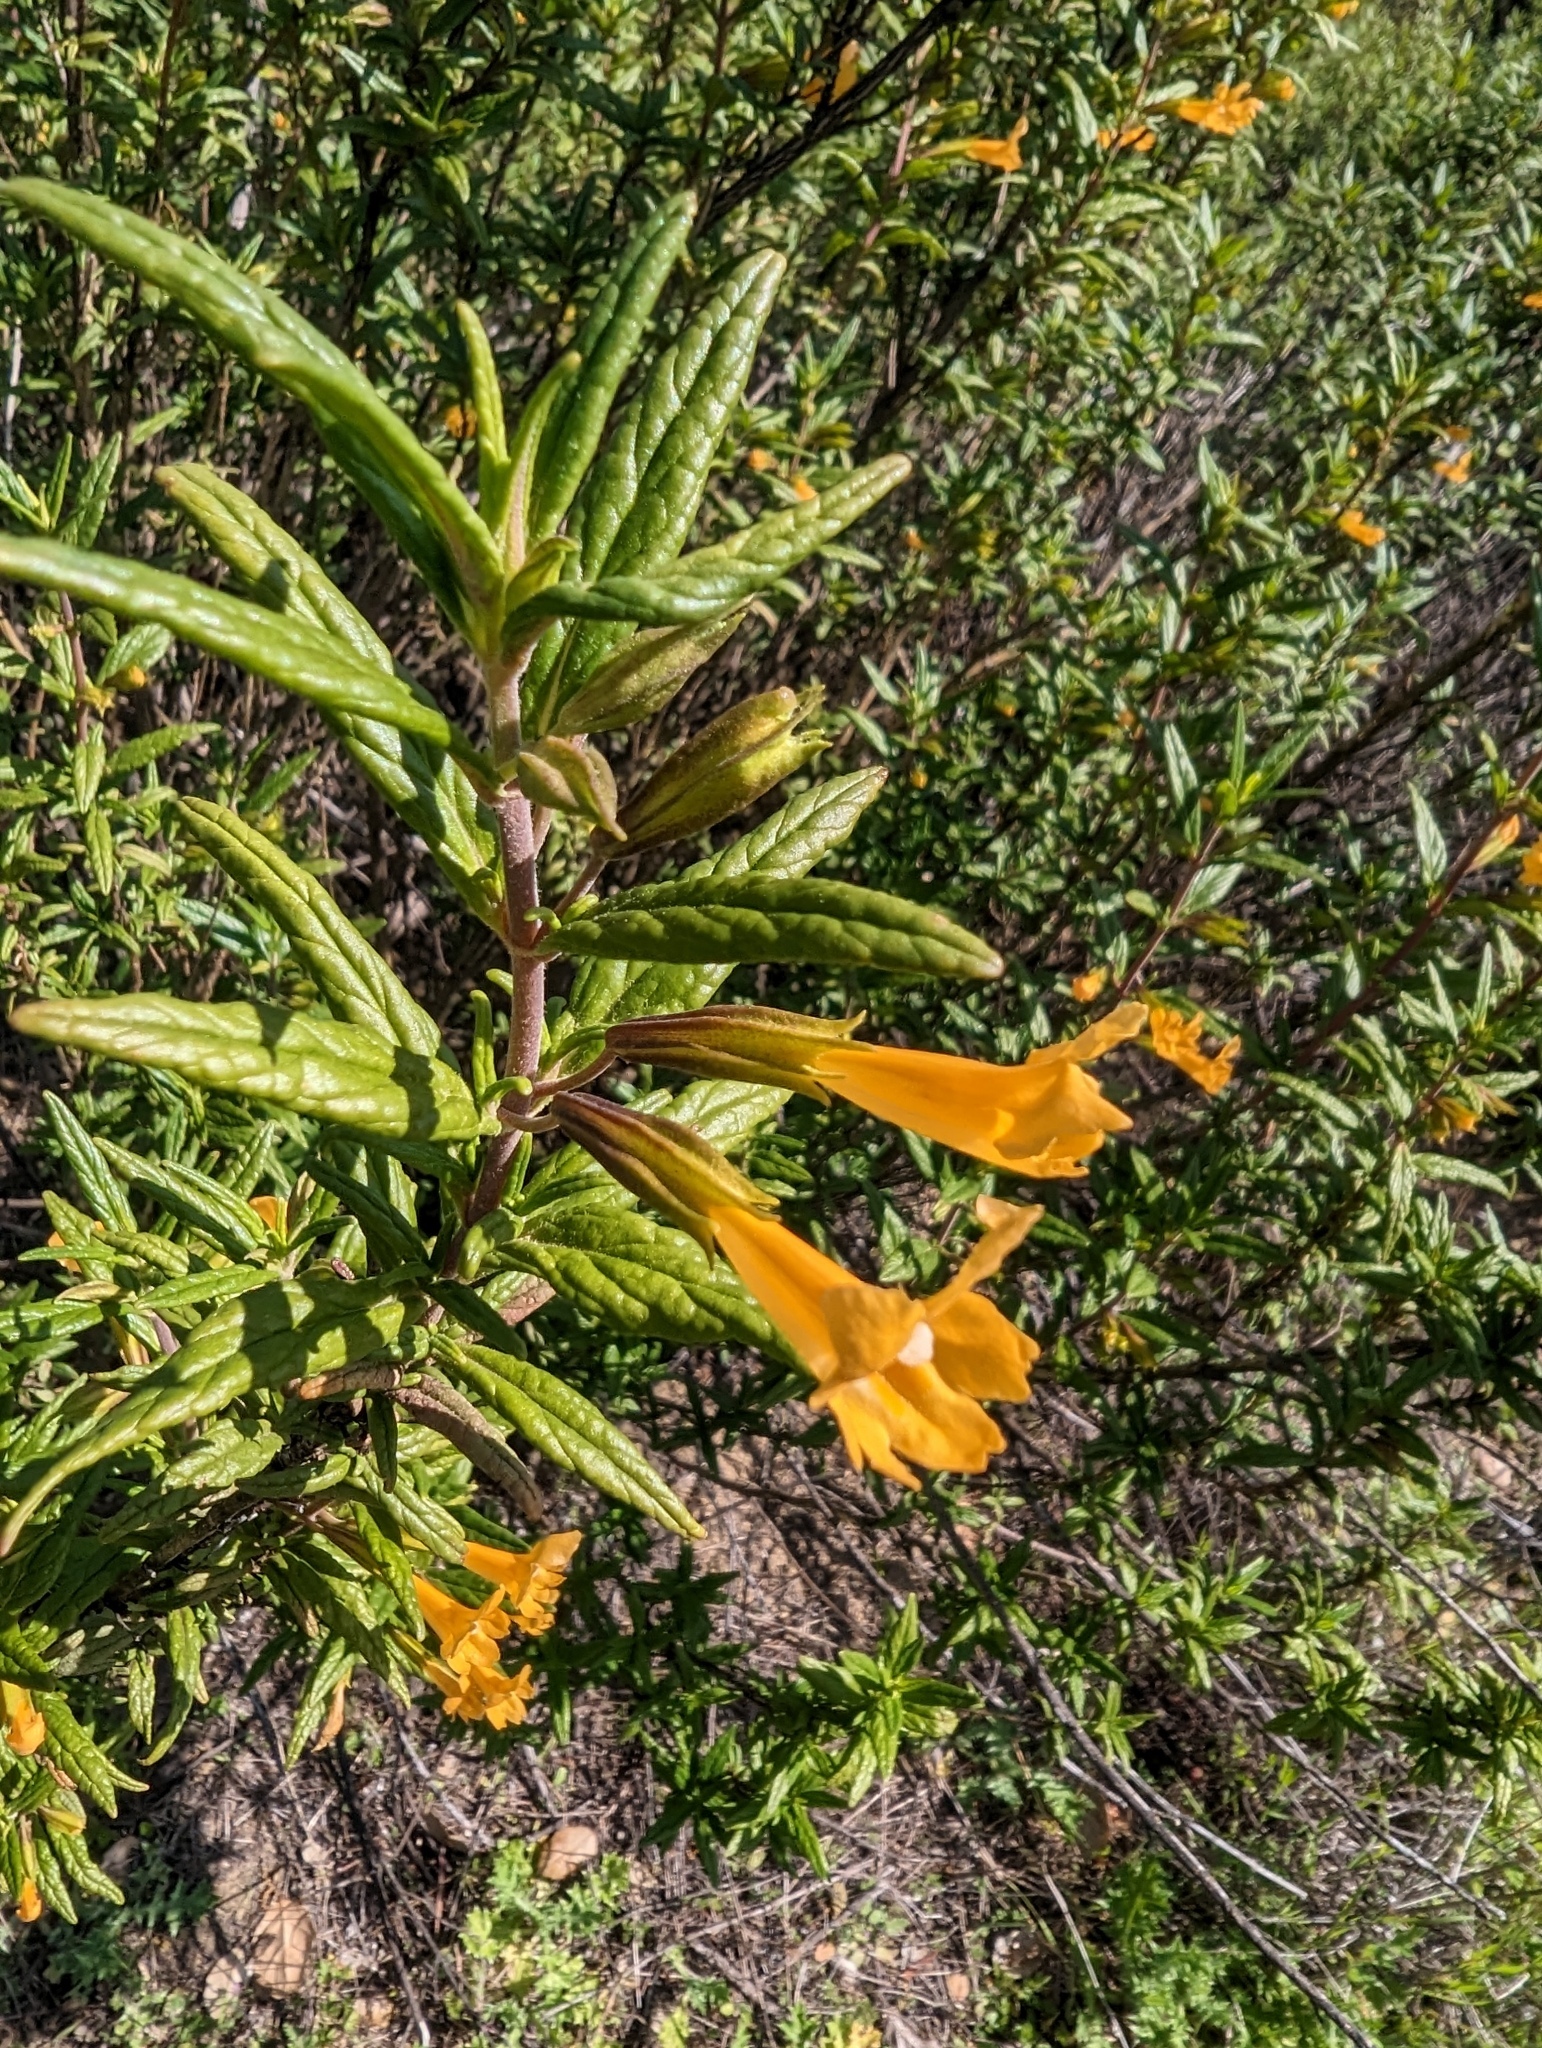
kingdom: Plantae
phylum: Tracheophyta
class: Magnoliopsida
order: Lamiales
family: Phrymaceae
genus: Diplacus
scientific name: Diplacus aurantiacus
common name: Bush monkey-flower
